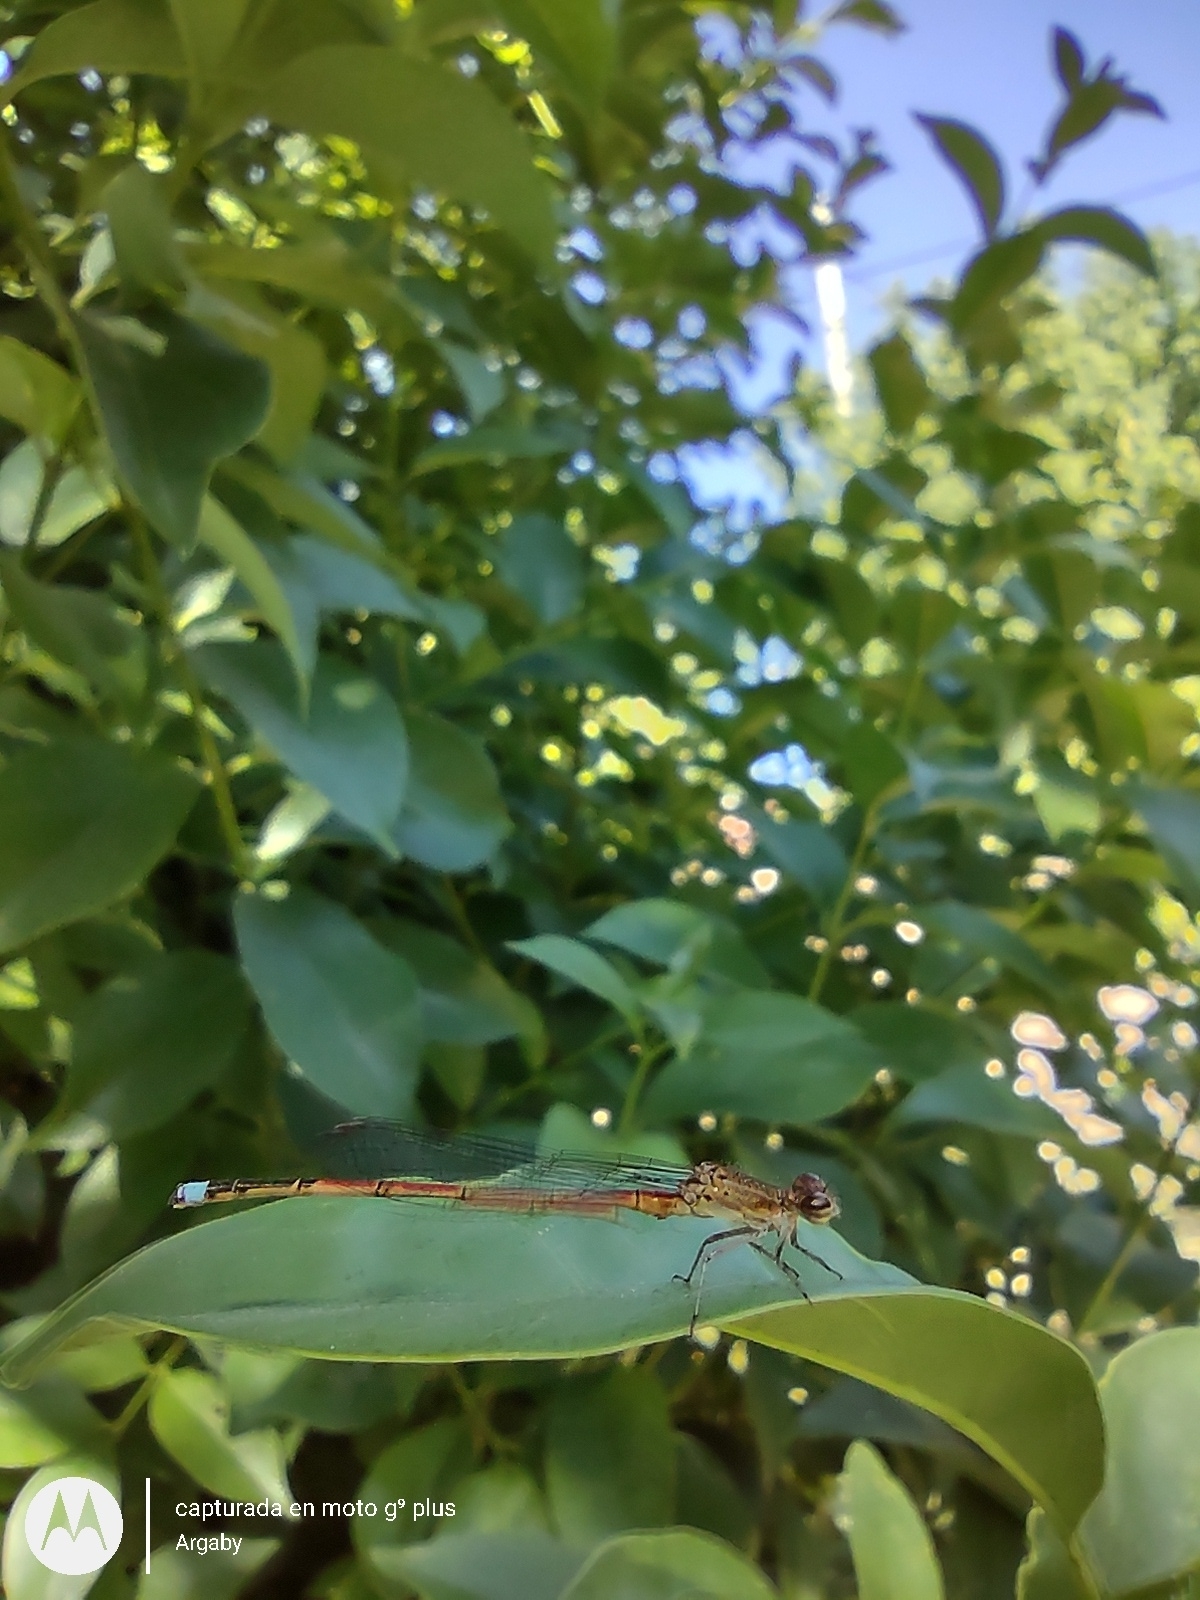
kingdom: Animalia
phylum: Arthropoda
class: Insecta
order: Odonata
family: Coenagrionidae
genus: Oxyagrion
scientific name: Oxyagrion terminale
